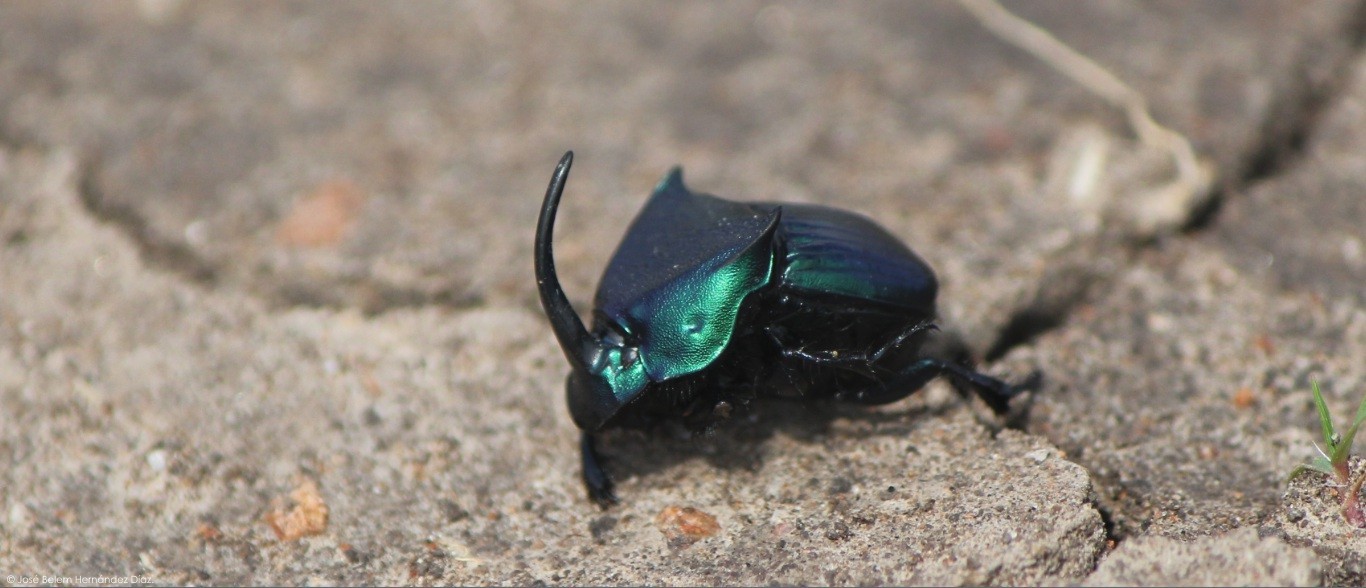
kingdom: Animalia
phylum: Arthropoda
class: Insecta
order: Coleoptera
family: Scarabaeidae
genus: Phanaeus
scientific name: Phanaeus adonis
